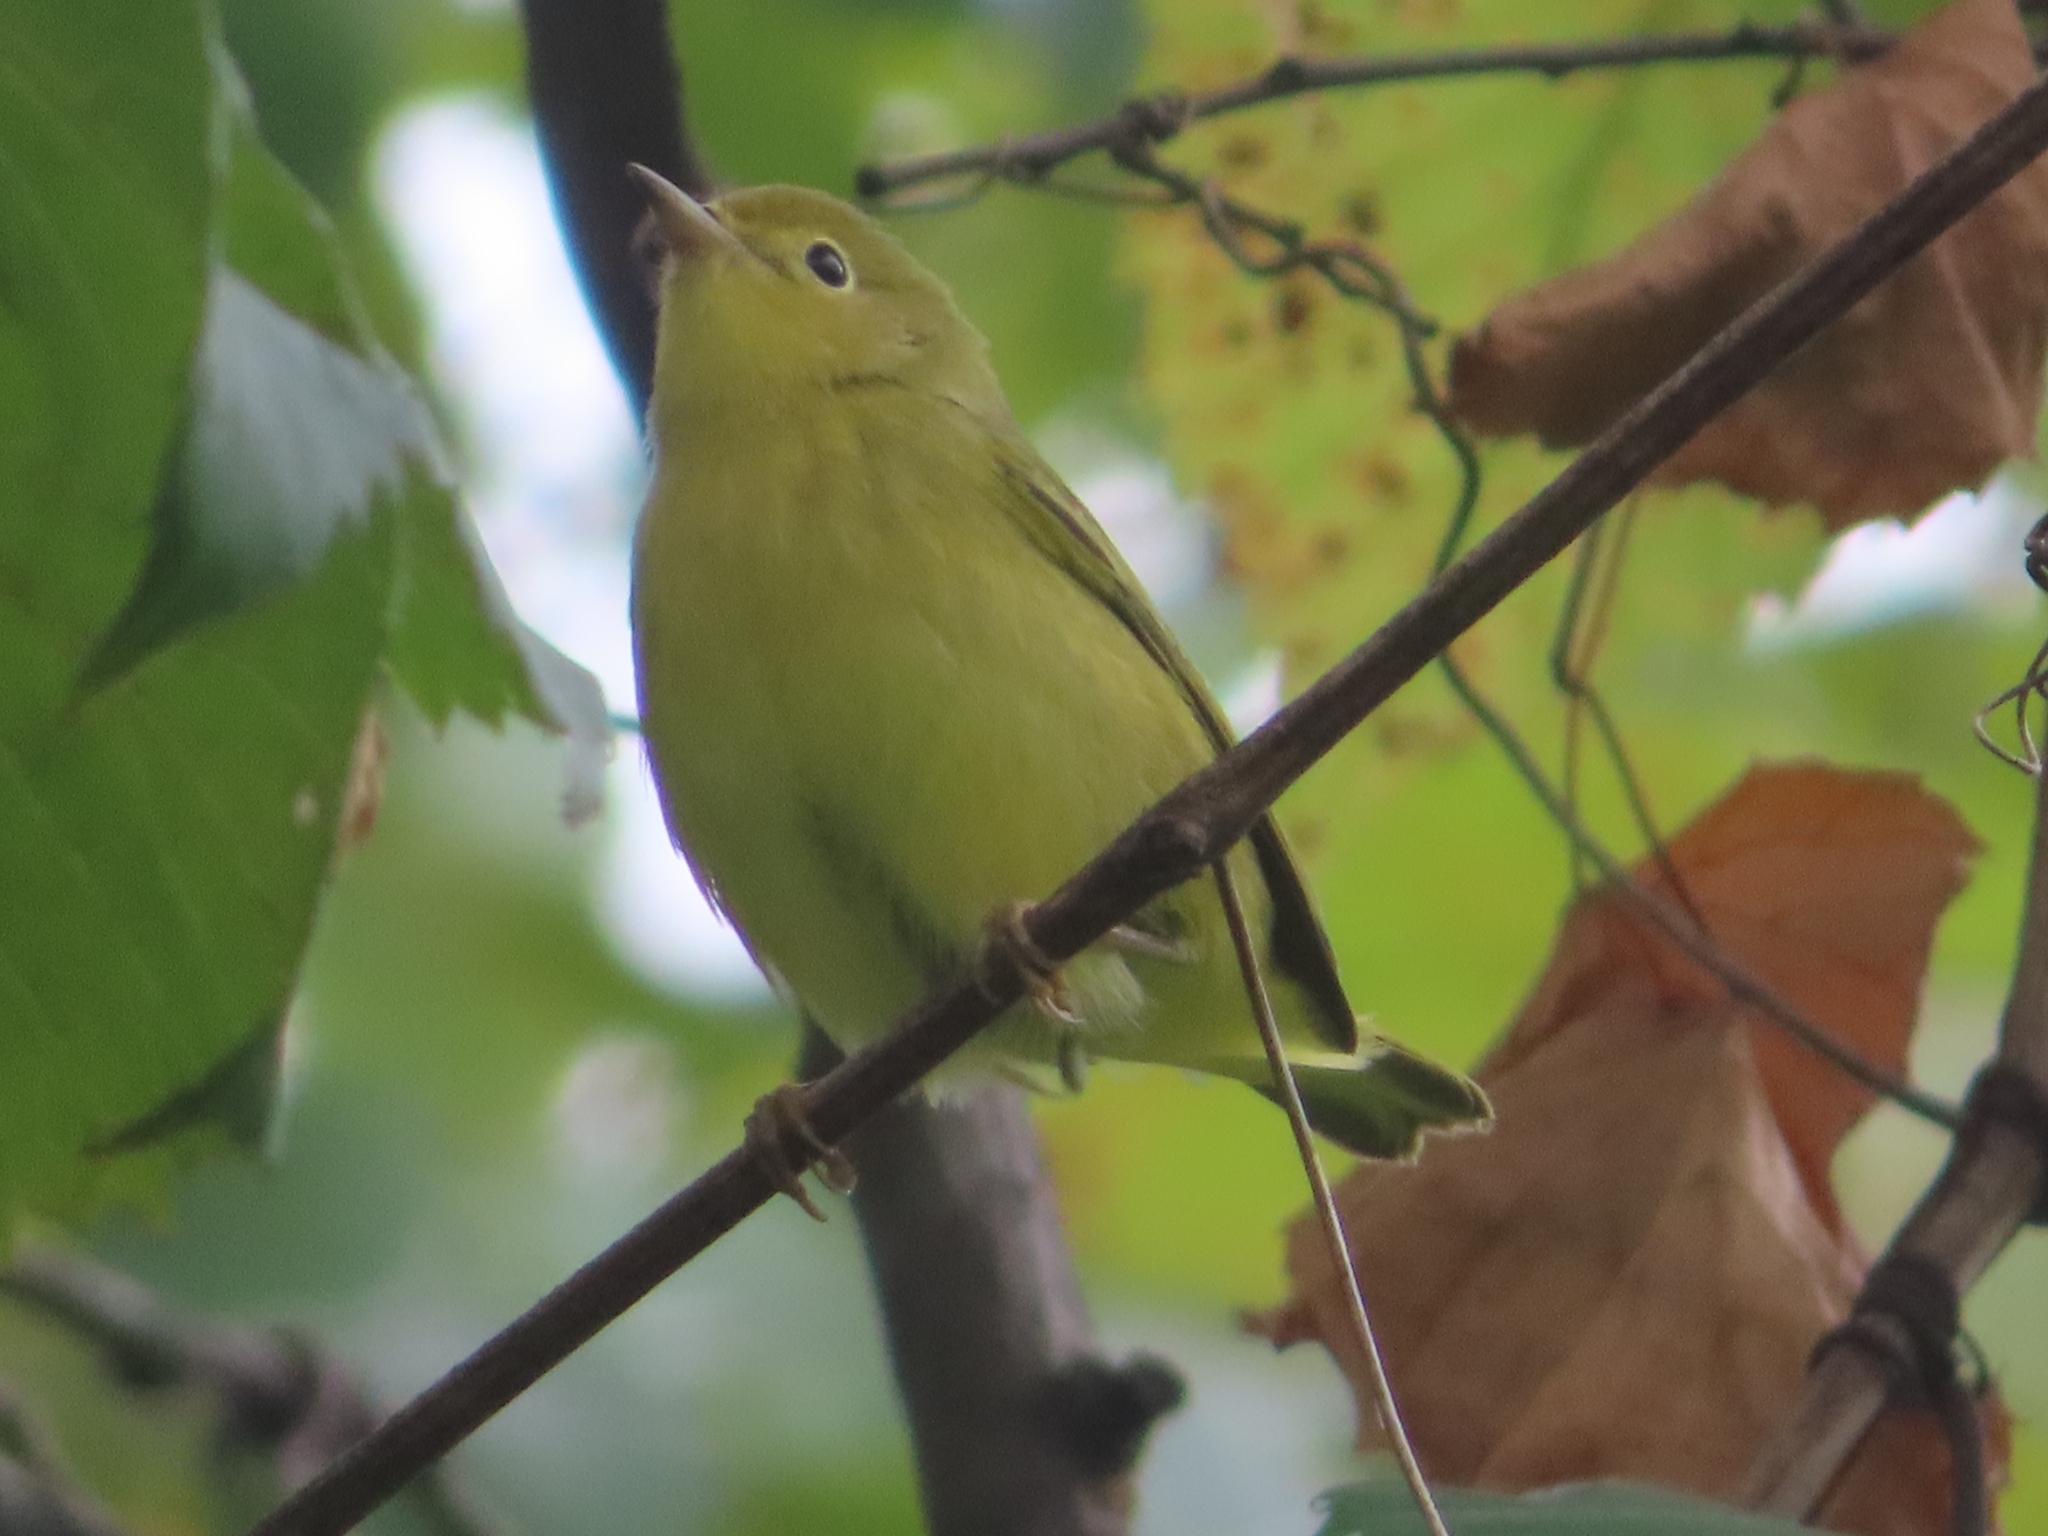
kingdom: Animalia
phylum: Chordata
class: Aves
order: Passeriformes
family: Parulidae
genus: Setophaga
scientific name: Setophaga petechia
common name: Yellow warbler
